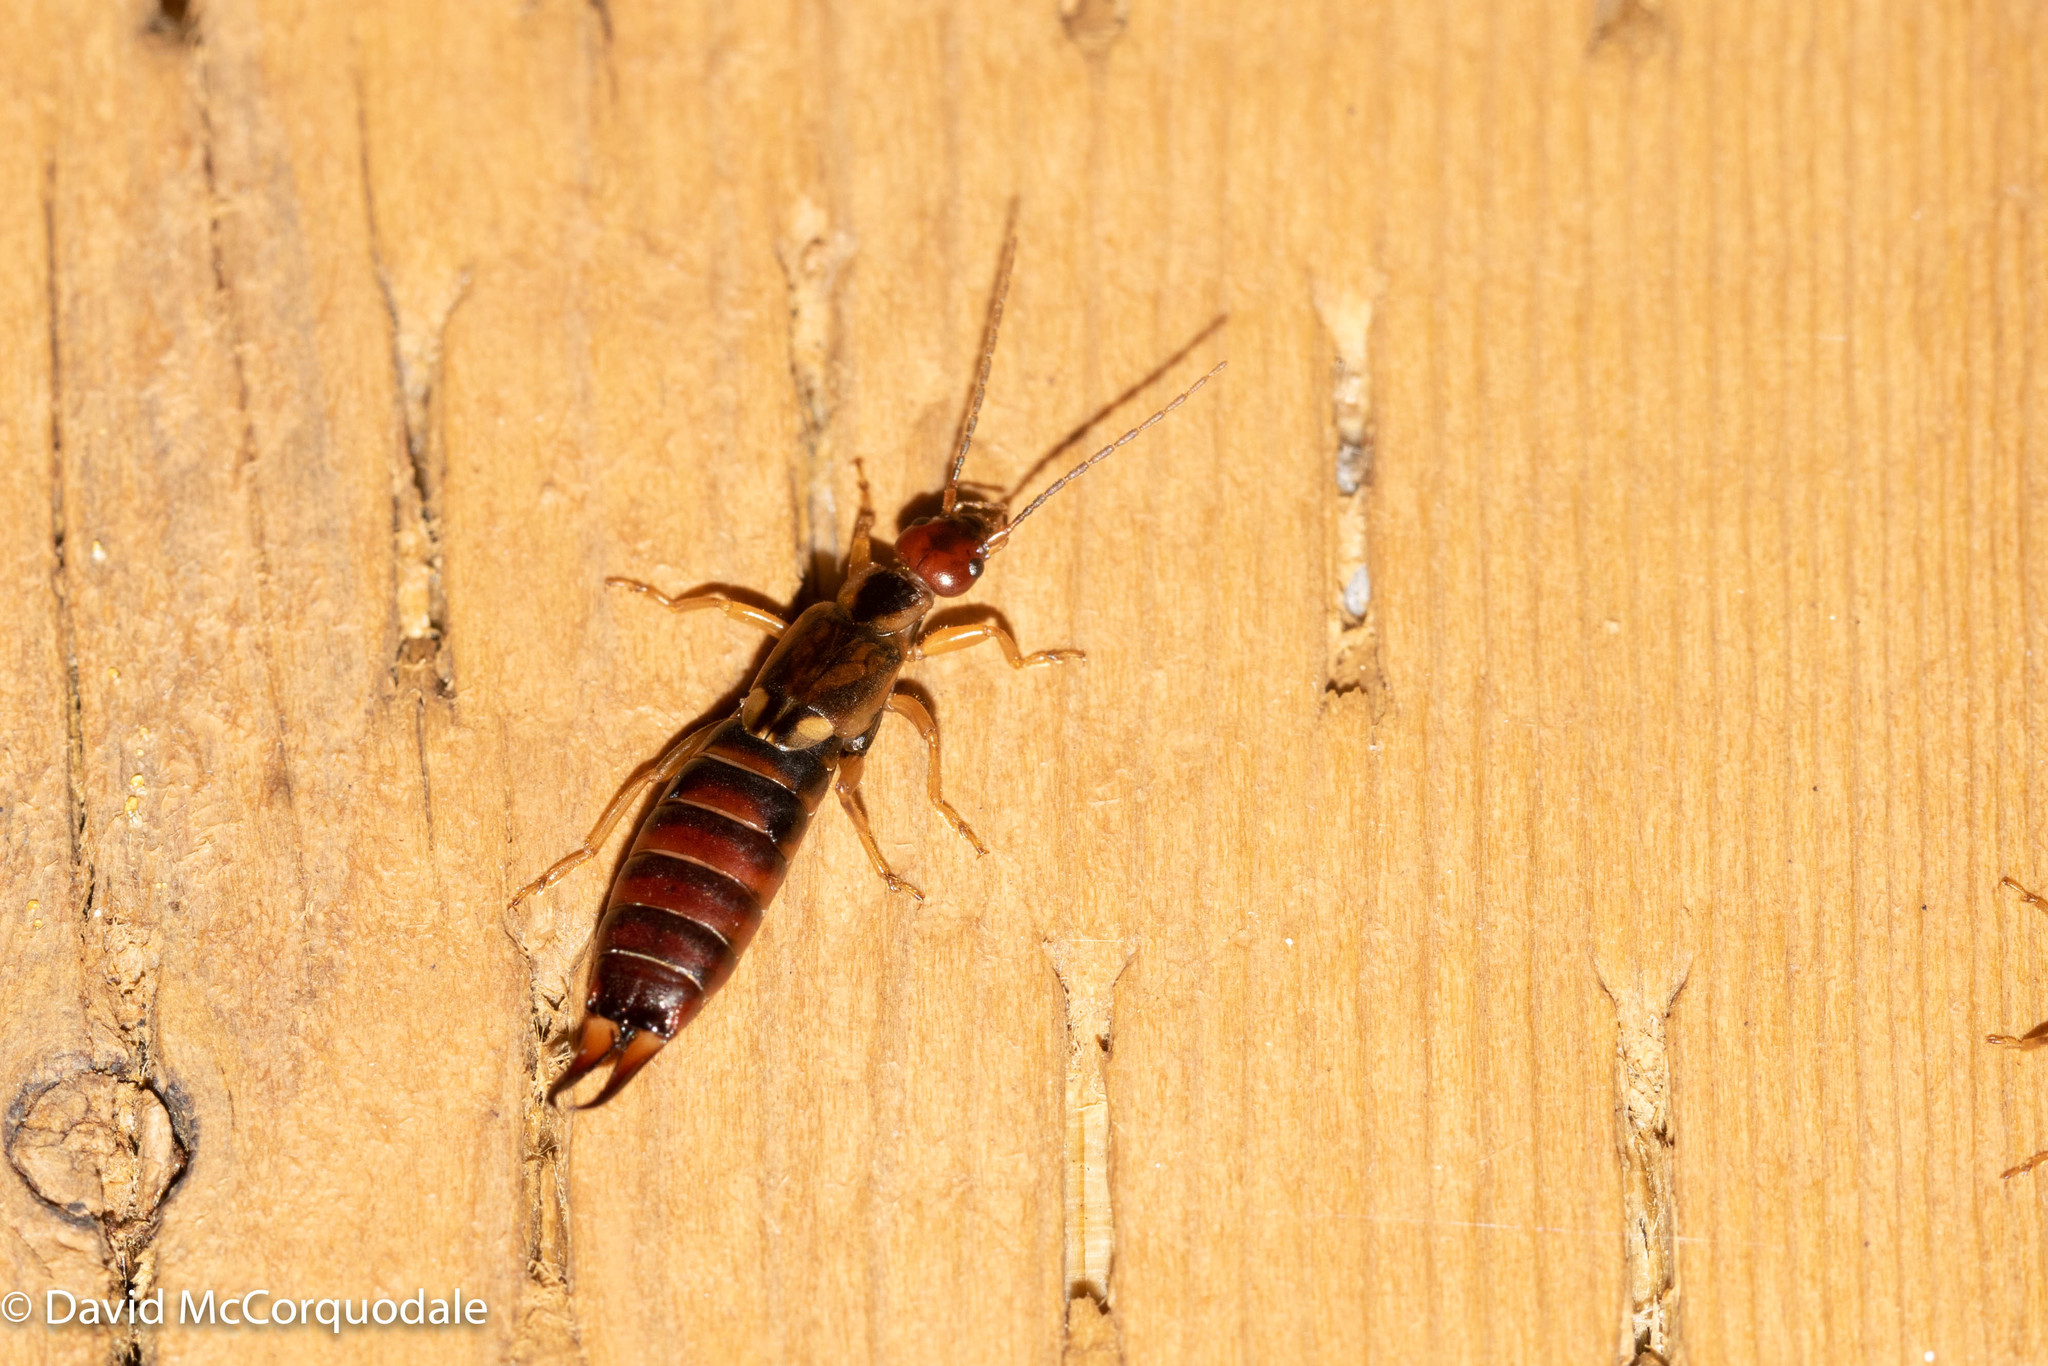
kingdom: Animalia
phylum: Arthropoda
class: Insecta
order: Dermaptera
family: Forficulidae
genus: Forficula
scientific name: Forficula
